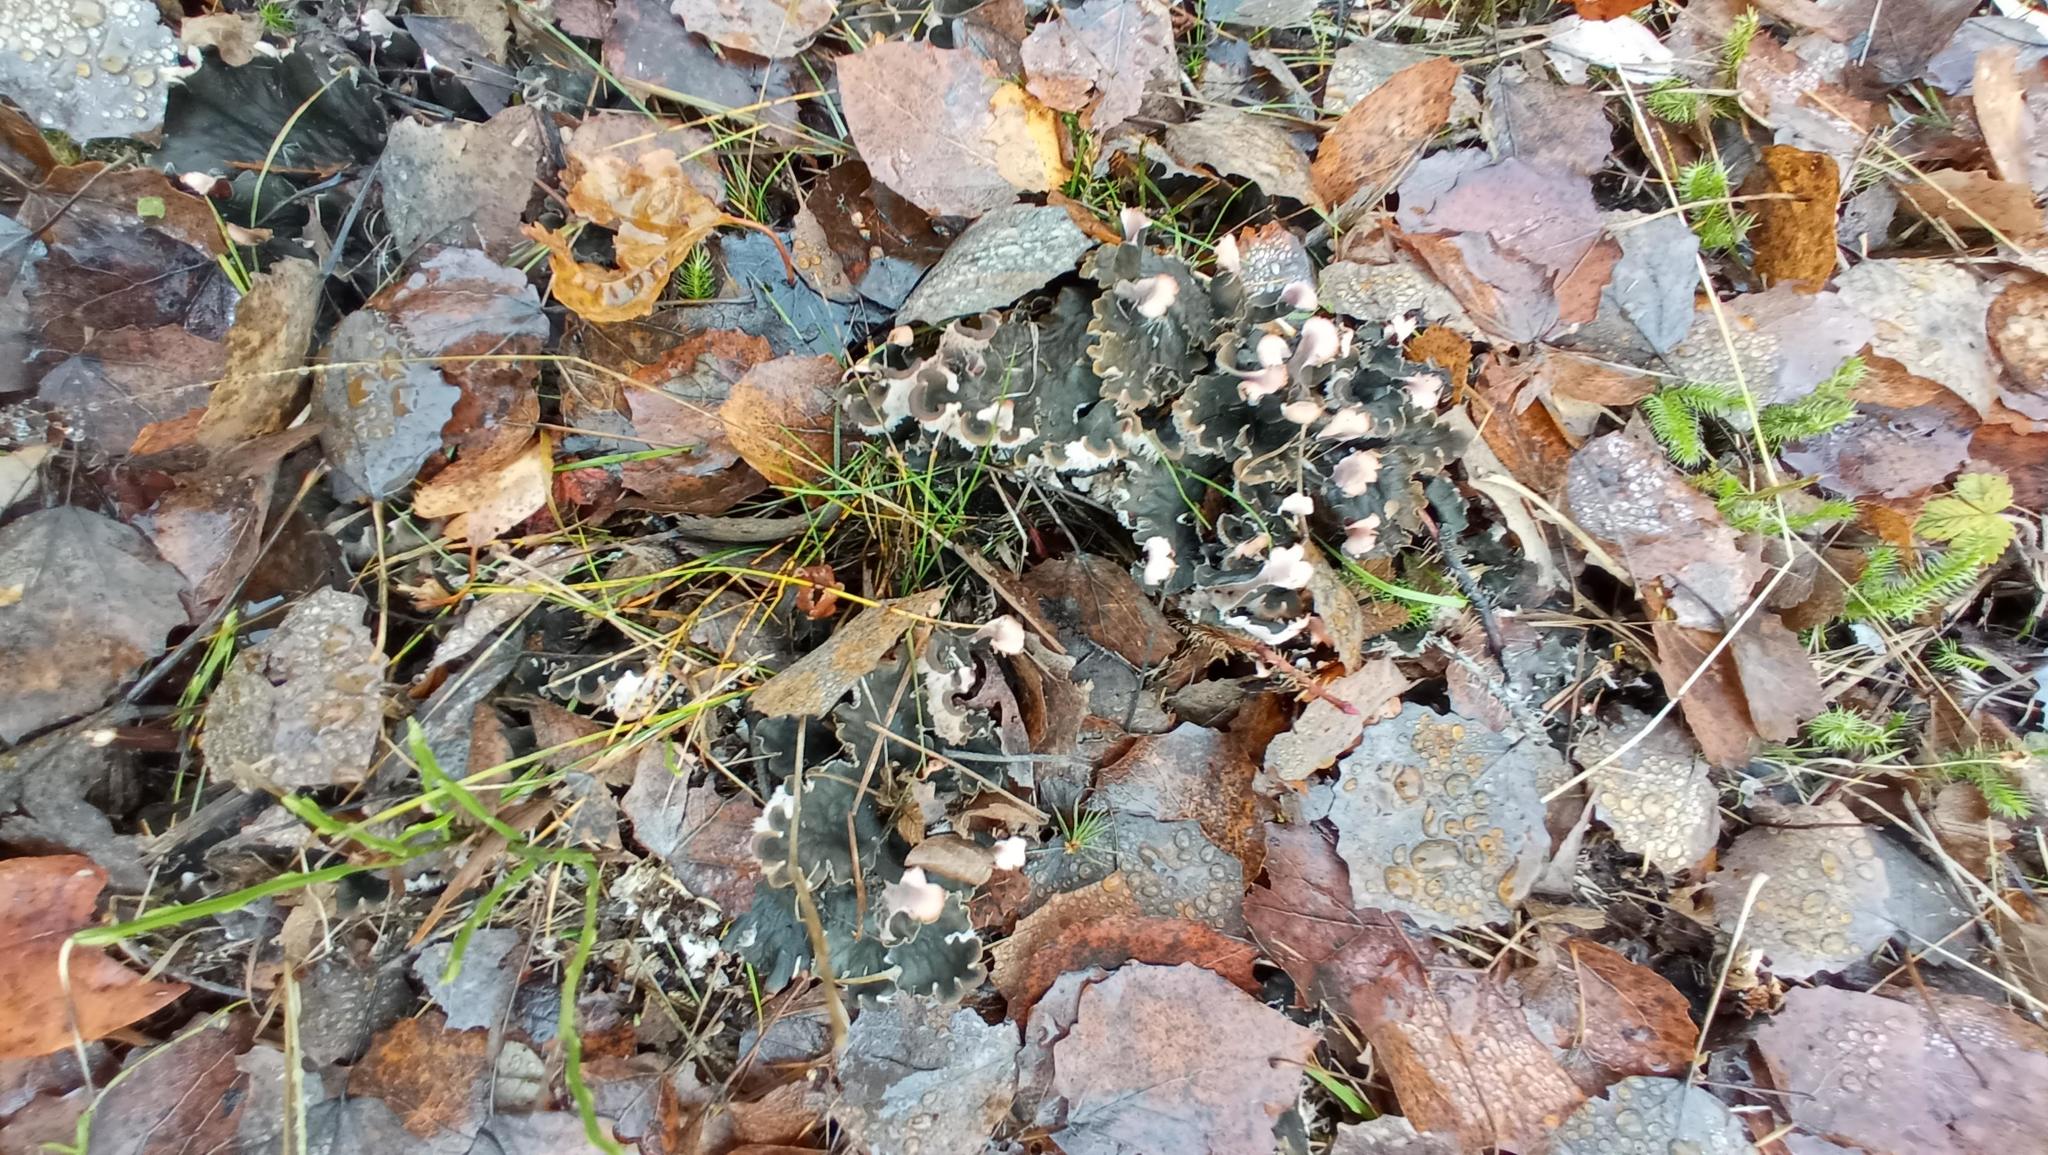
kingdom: Fungi
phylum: Ascomycota
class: Lecanoromycetes
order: Peltigerales
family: Peltigeraceae
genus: Peltigera
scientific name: Peltigera canina
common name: Dog pelt lichen
